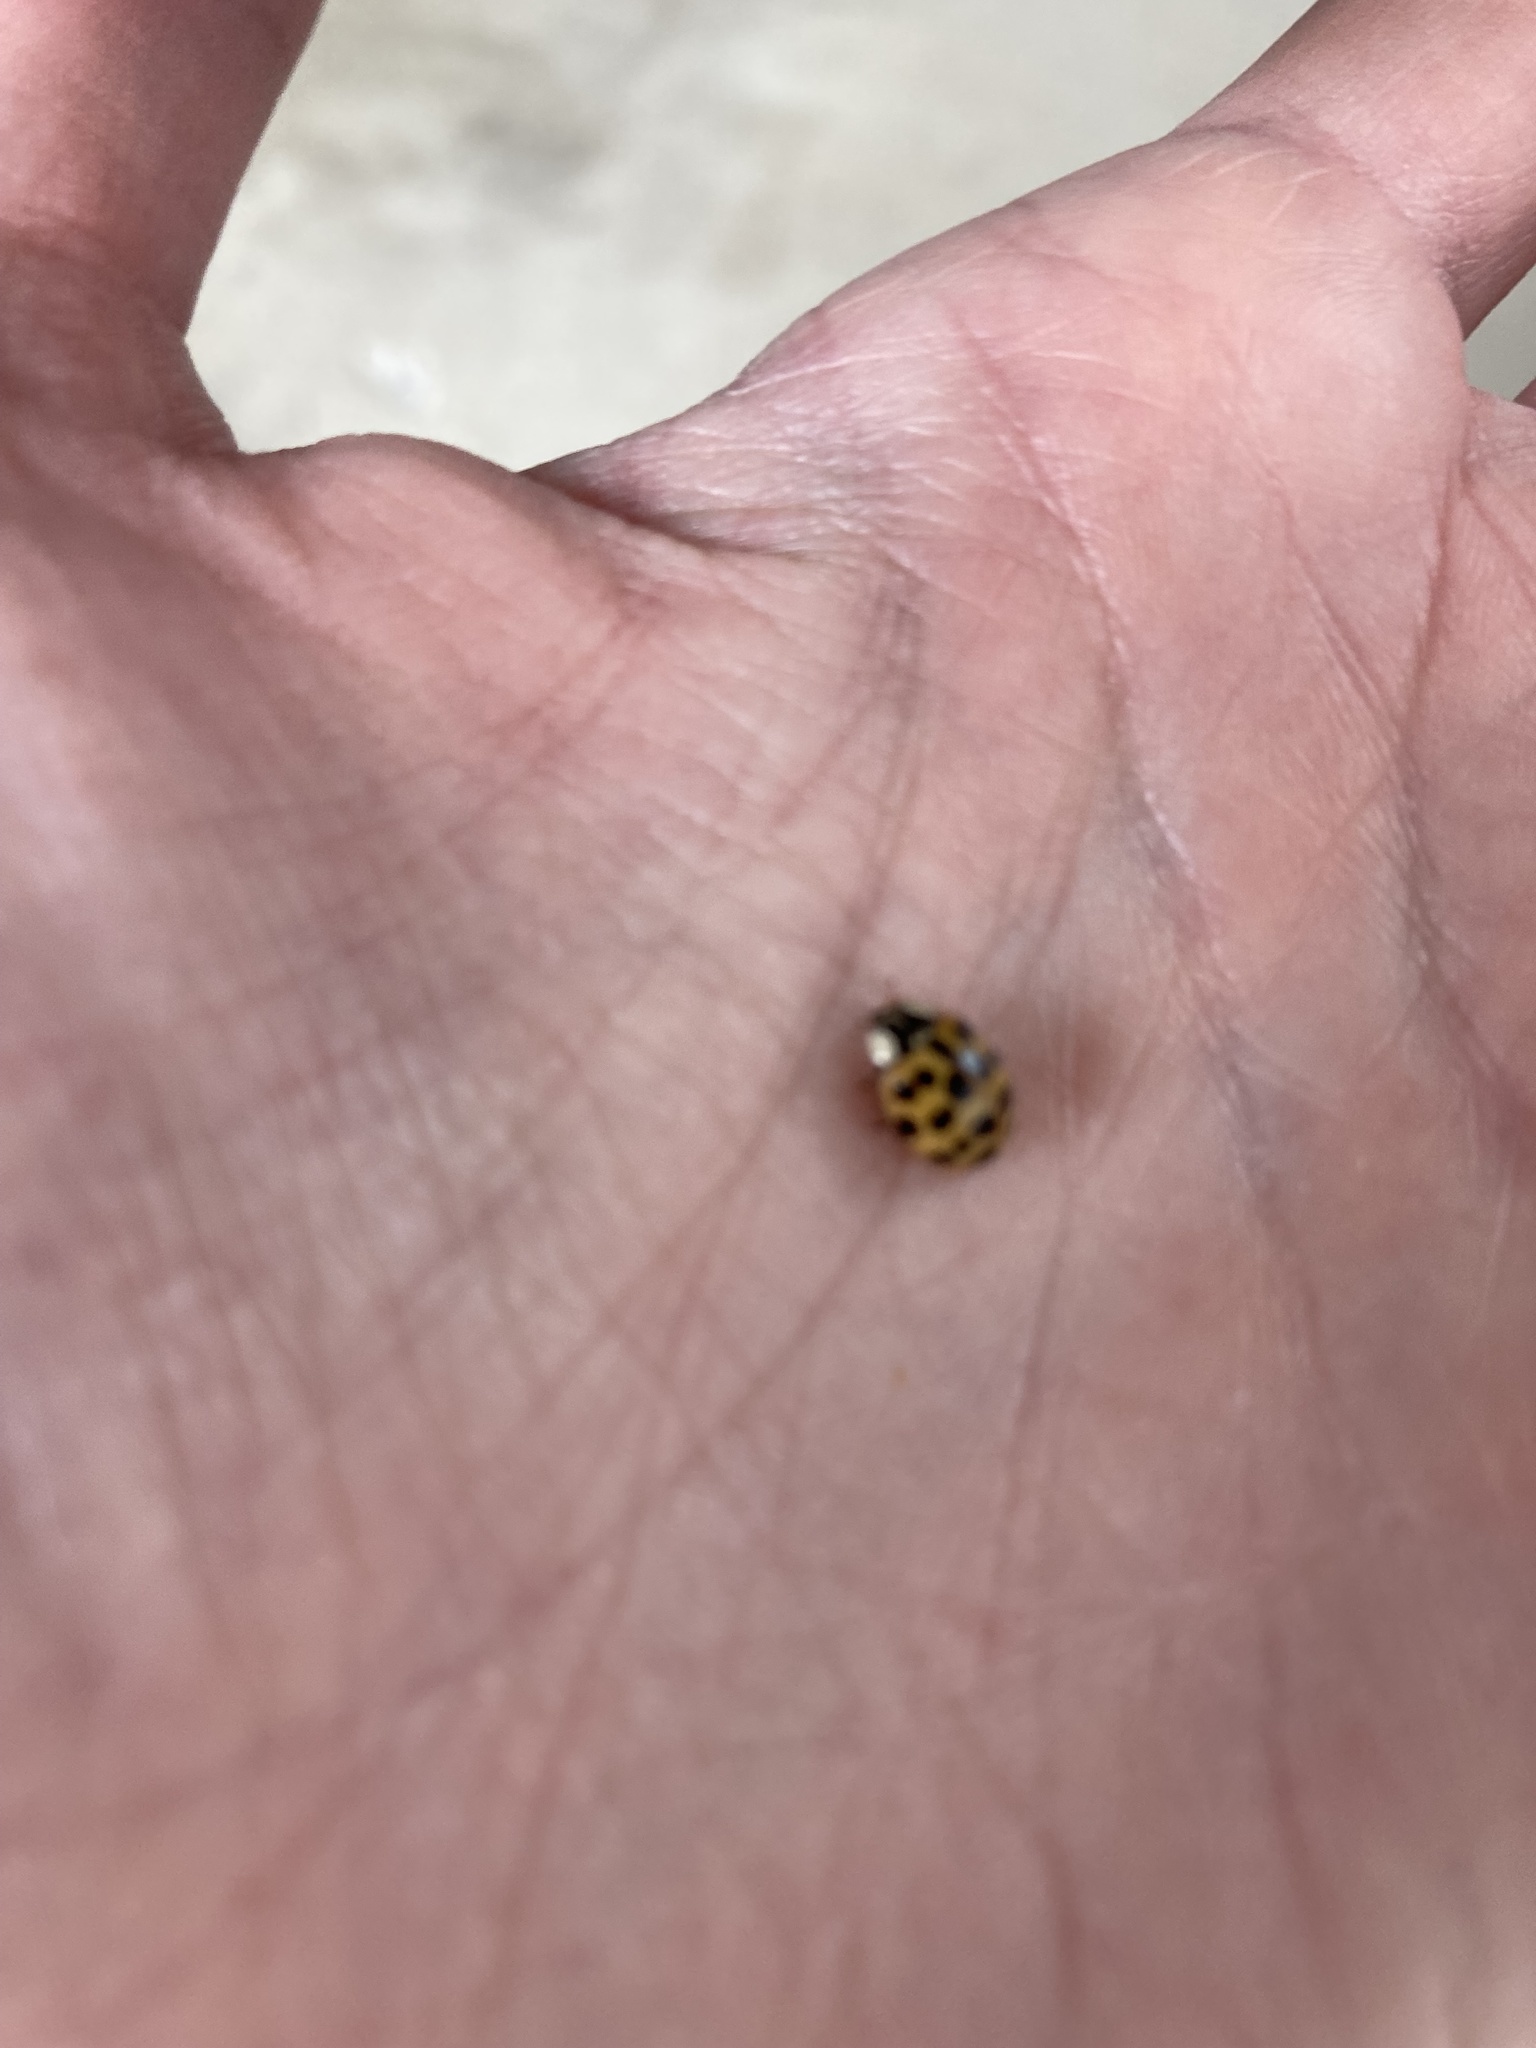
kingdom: Animalia
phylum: Arthropoda
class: Insecta
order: Coleoptera
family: Coccinellidae
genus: Harmonia
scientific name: Harmonia axyridis
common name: Harlequin ladybird
